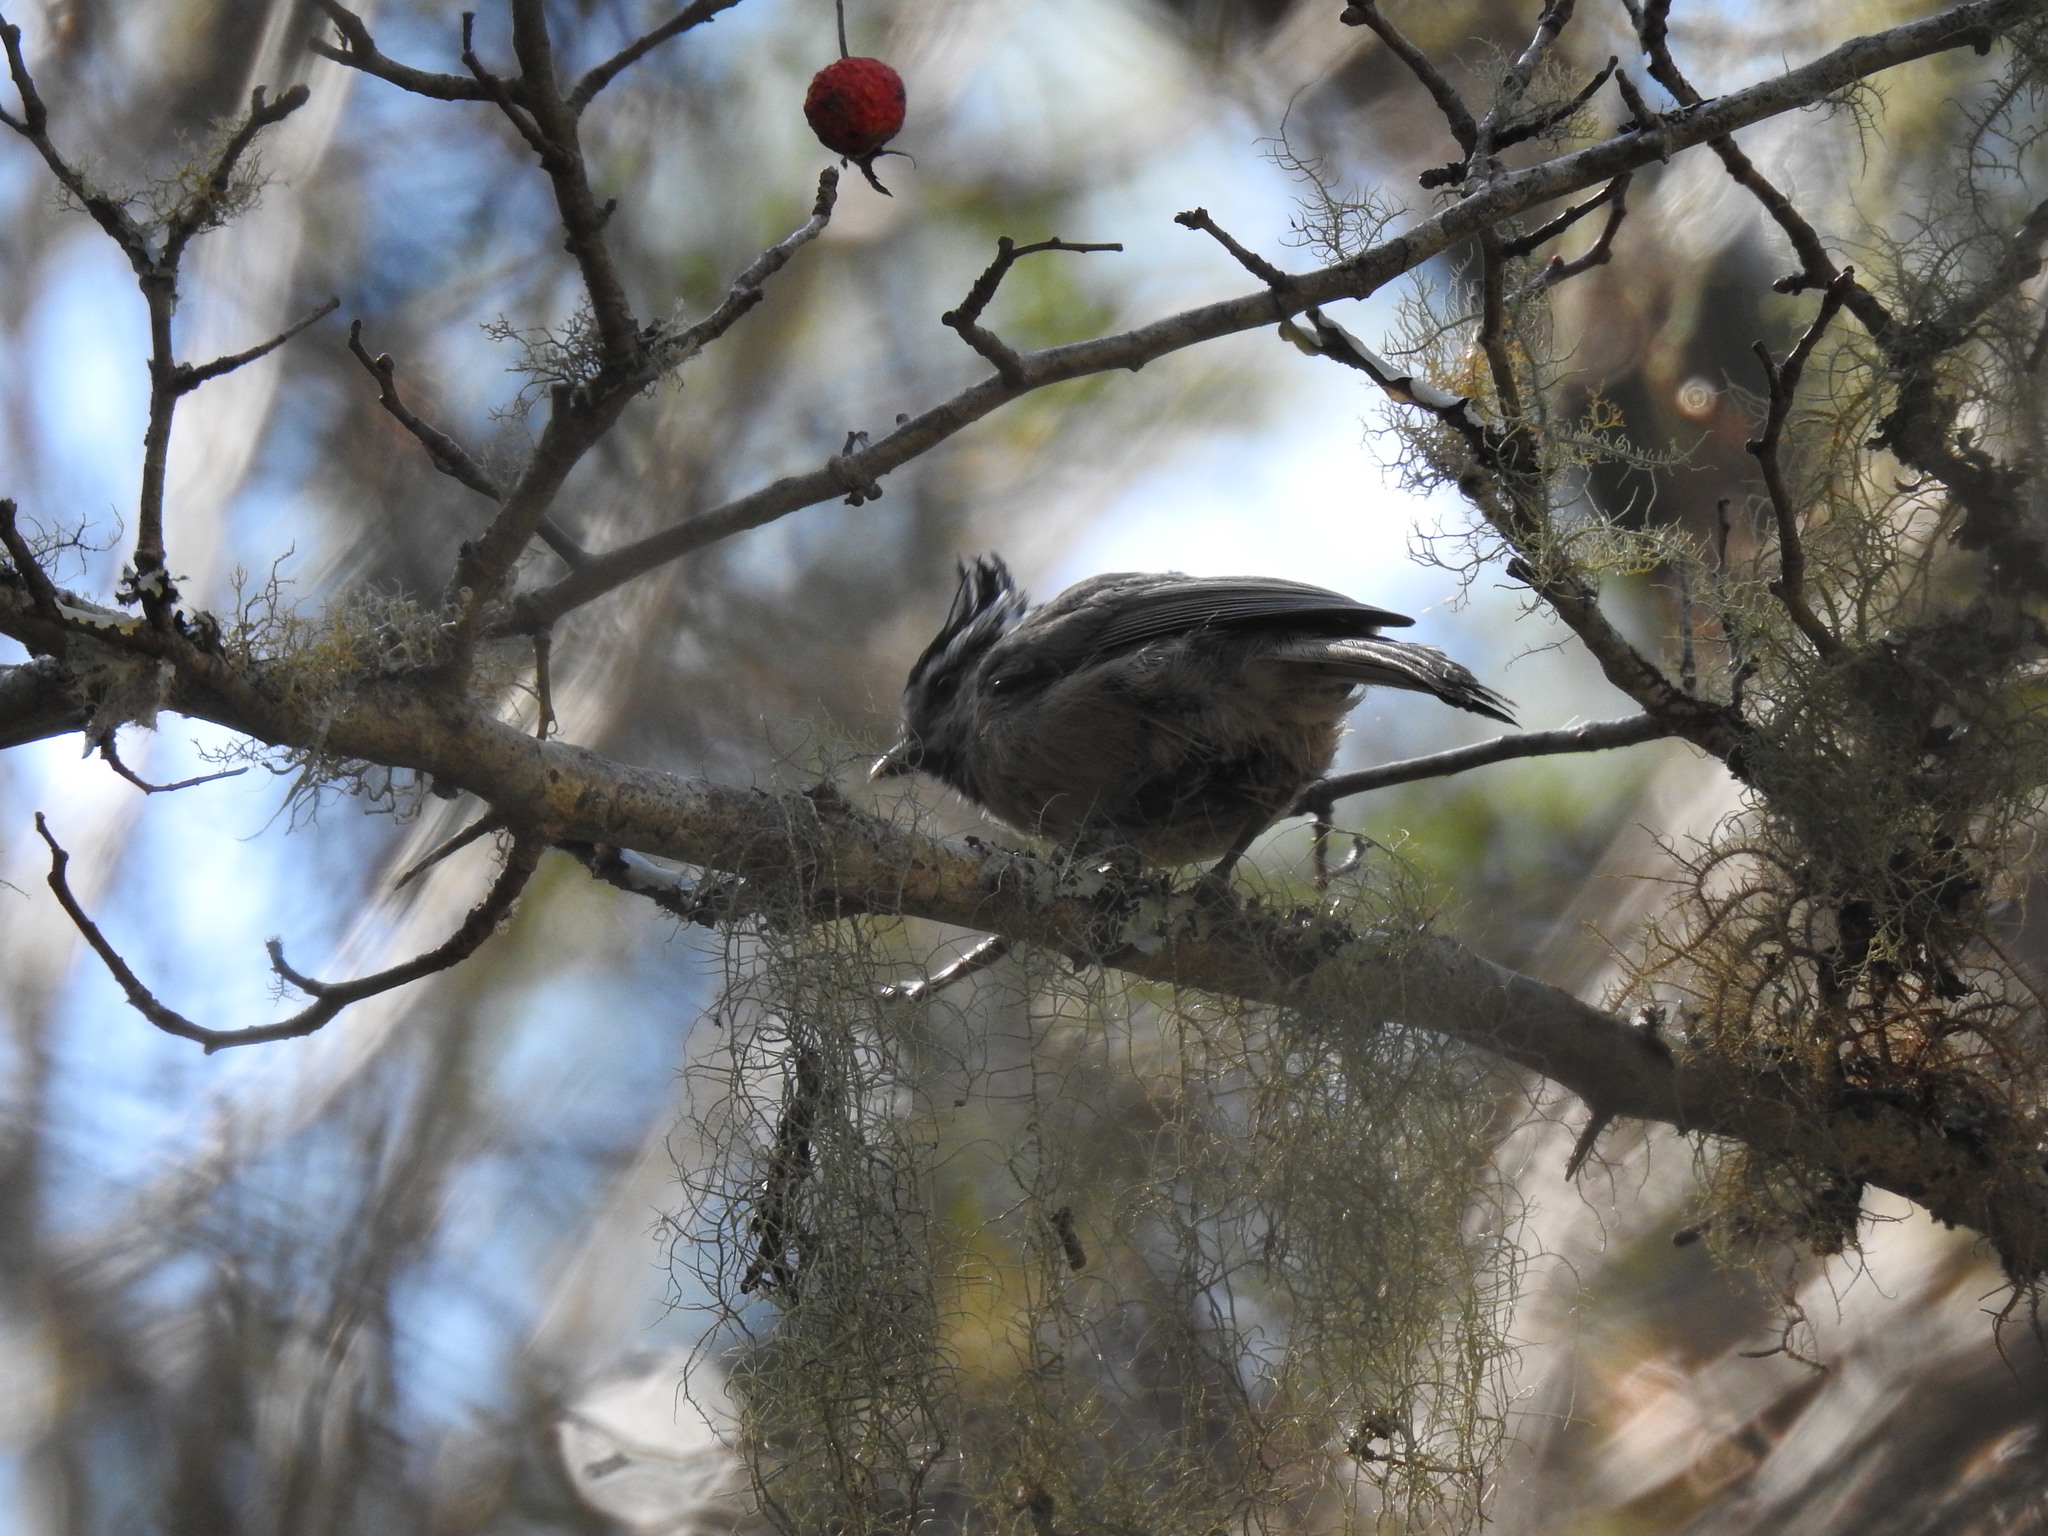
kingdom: Animalia
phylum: Chordata
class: Aves
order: Passeriformes
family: Paridae
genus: Baeolophus
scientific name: Baeolophus wollweberi
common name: Bridled titmouse
